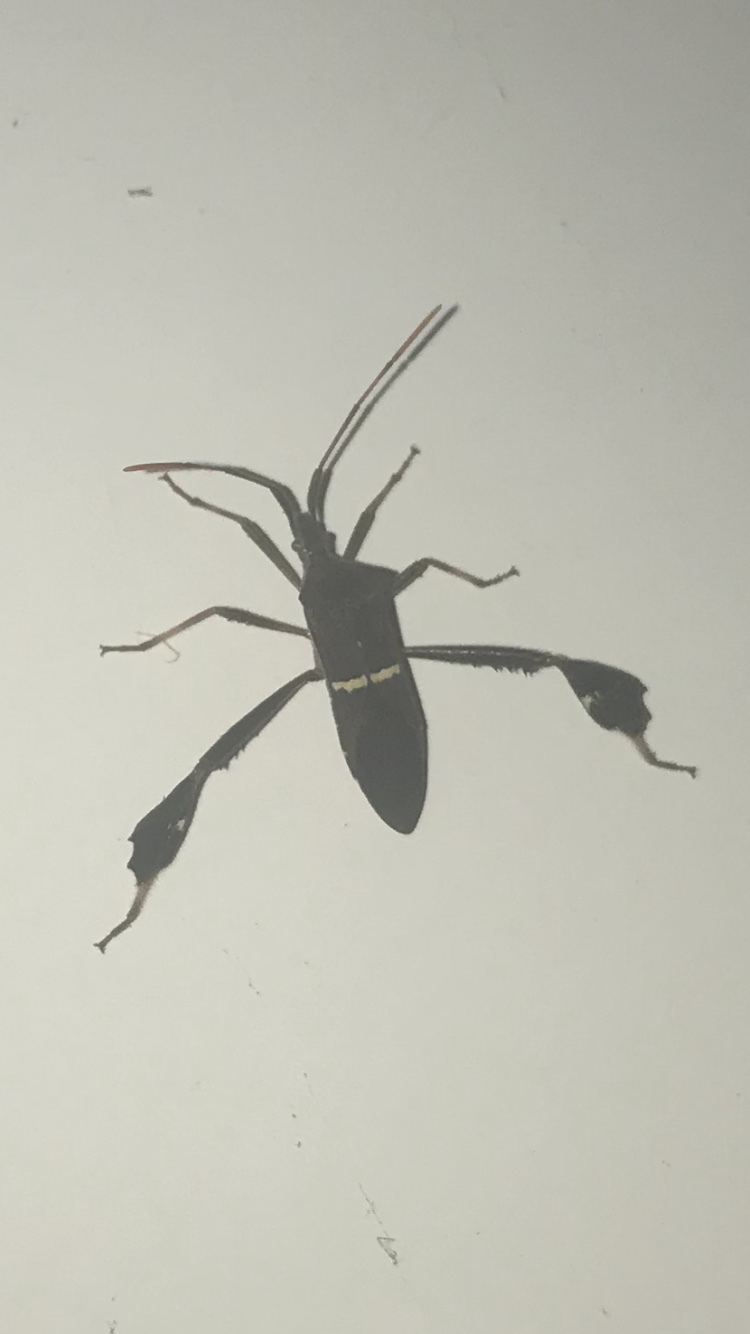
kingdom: Animalia
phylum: Arthropoda
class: Insecta
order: Hemiptera
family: Coreidae
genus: Leptoglossus
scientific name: Leptoglossus phyllopus
